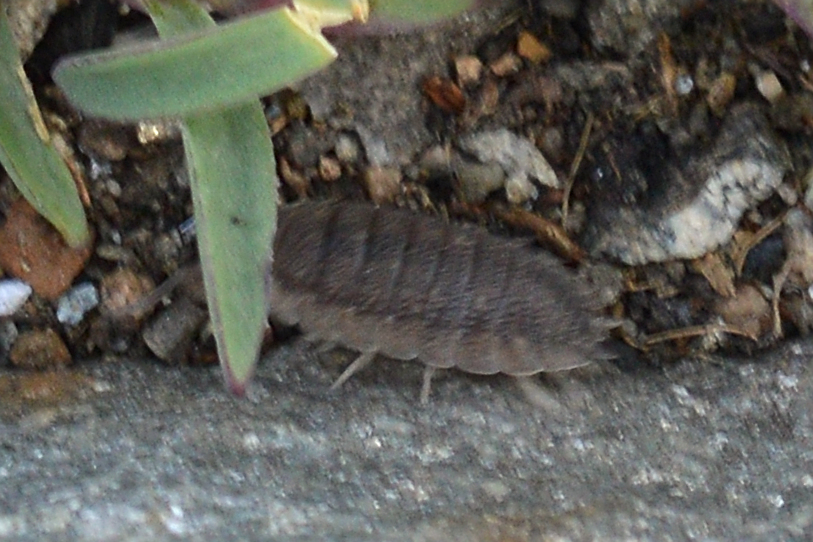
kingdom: Animalia
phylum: Arthropoda
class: Malacostraca
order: Isopoda
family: Porcellionidae
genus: Porcellio
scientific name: Porcellio scaber
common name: Common rough woodlouse
